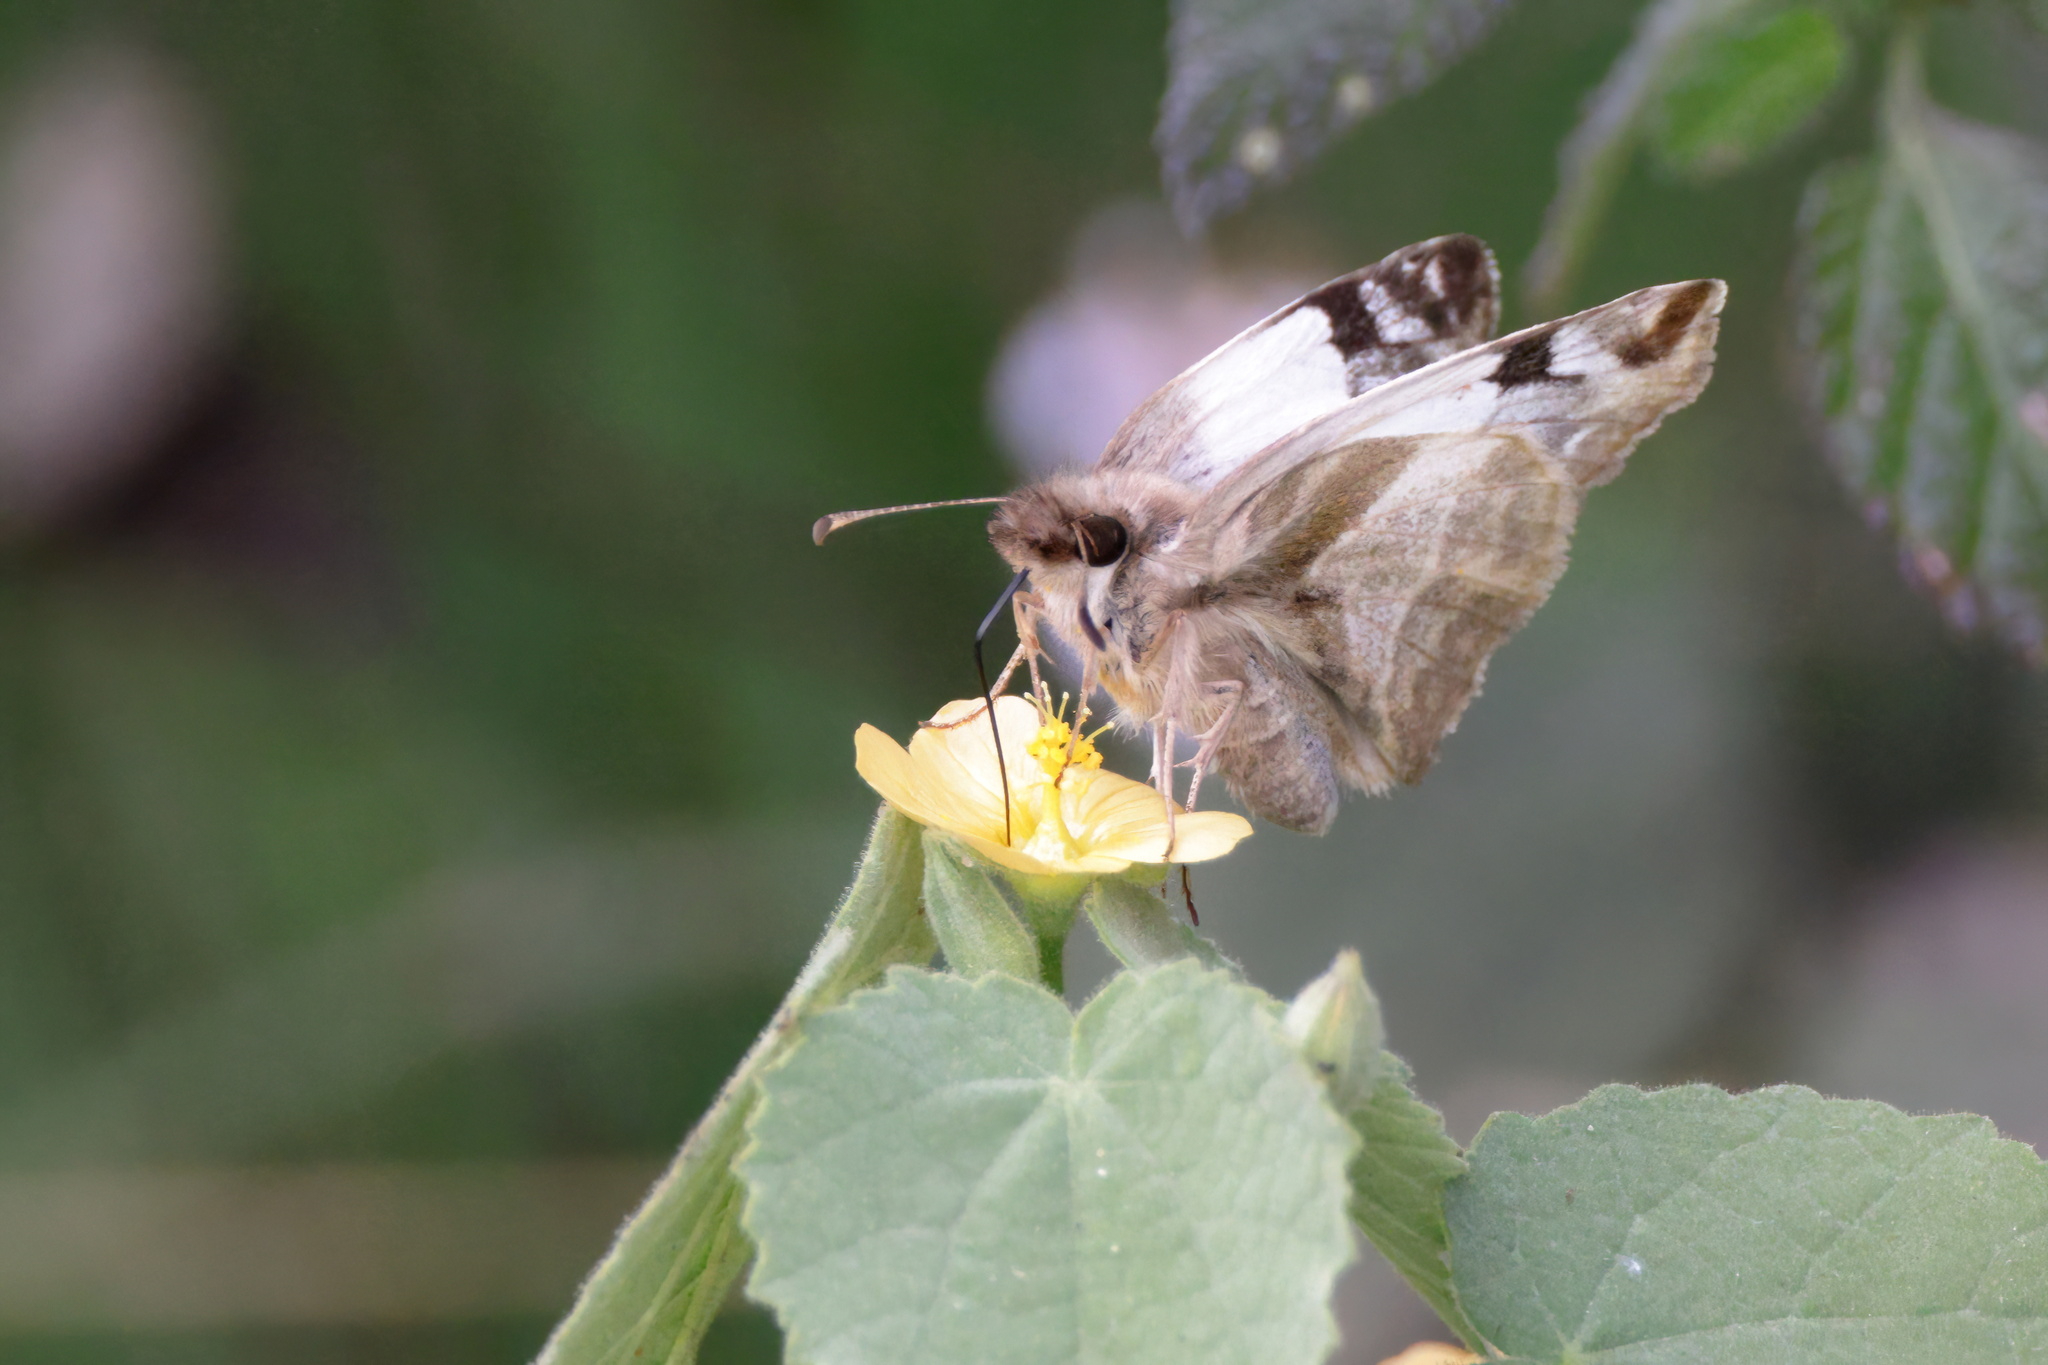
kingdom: Animalia
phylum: Arthropoda
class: Insecta
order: Lepidoptera
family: Hesperiidae
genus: Heliopetes
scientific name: Heliopetes laviana
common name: Laviana white-skipper
